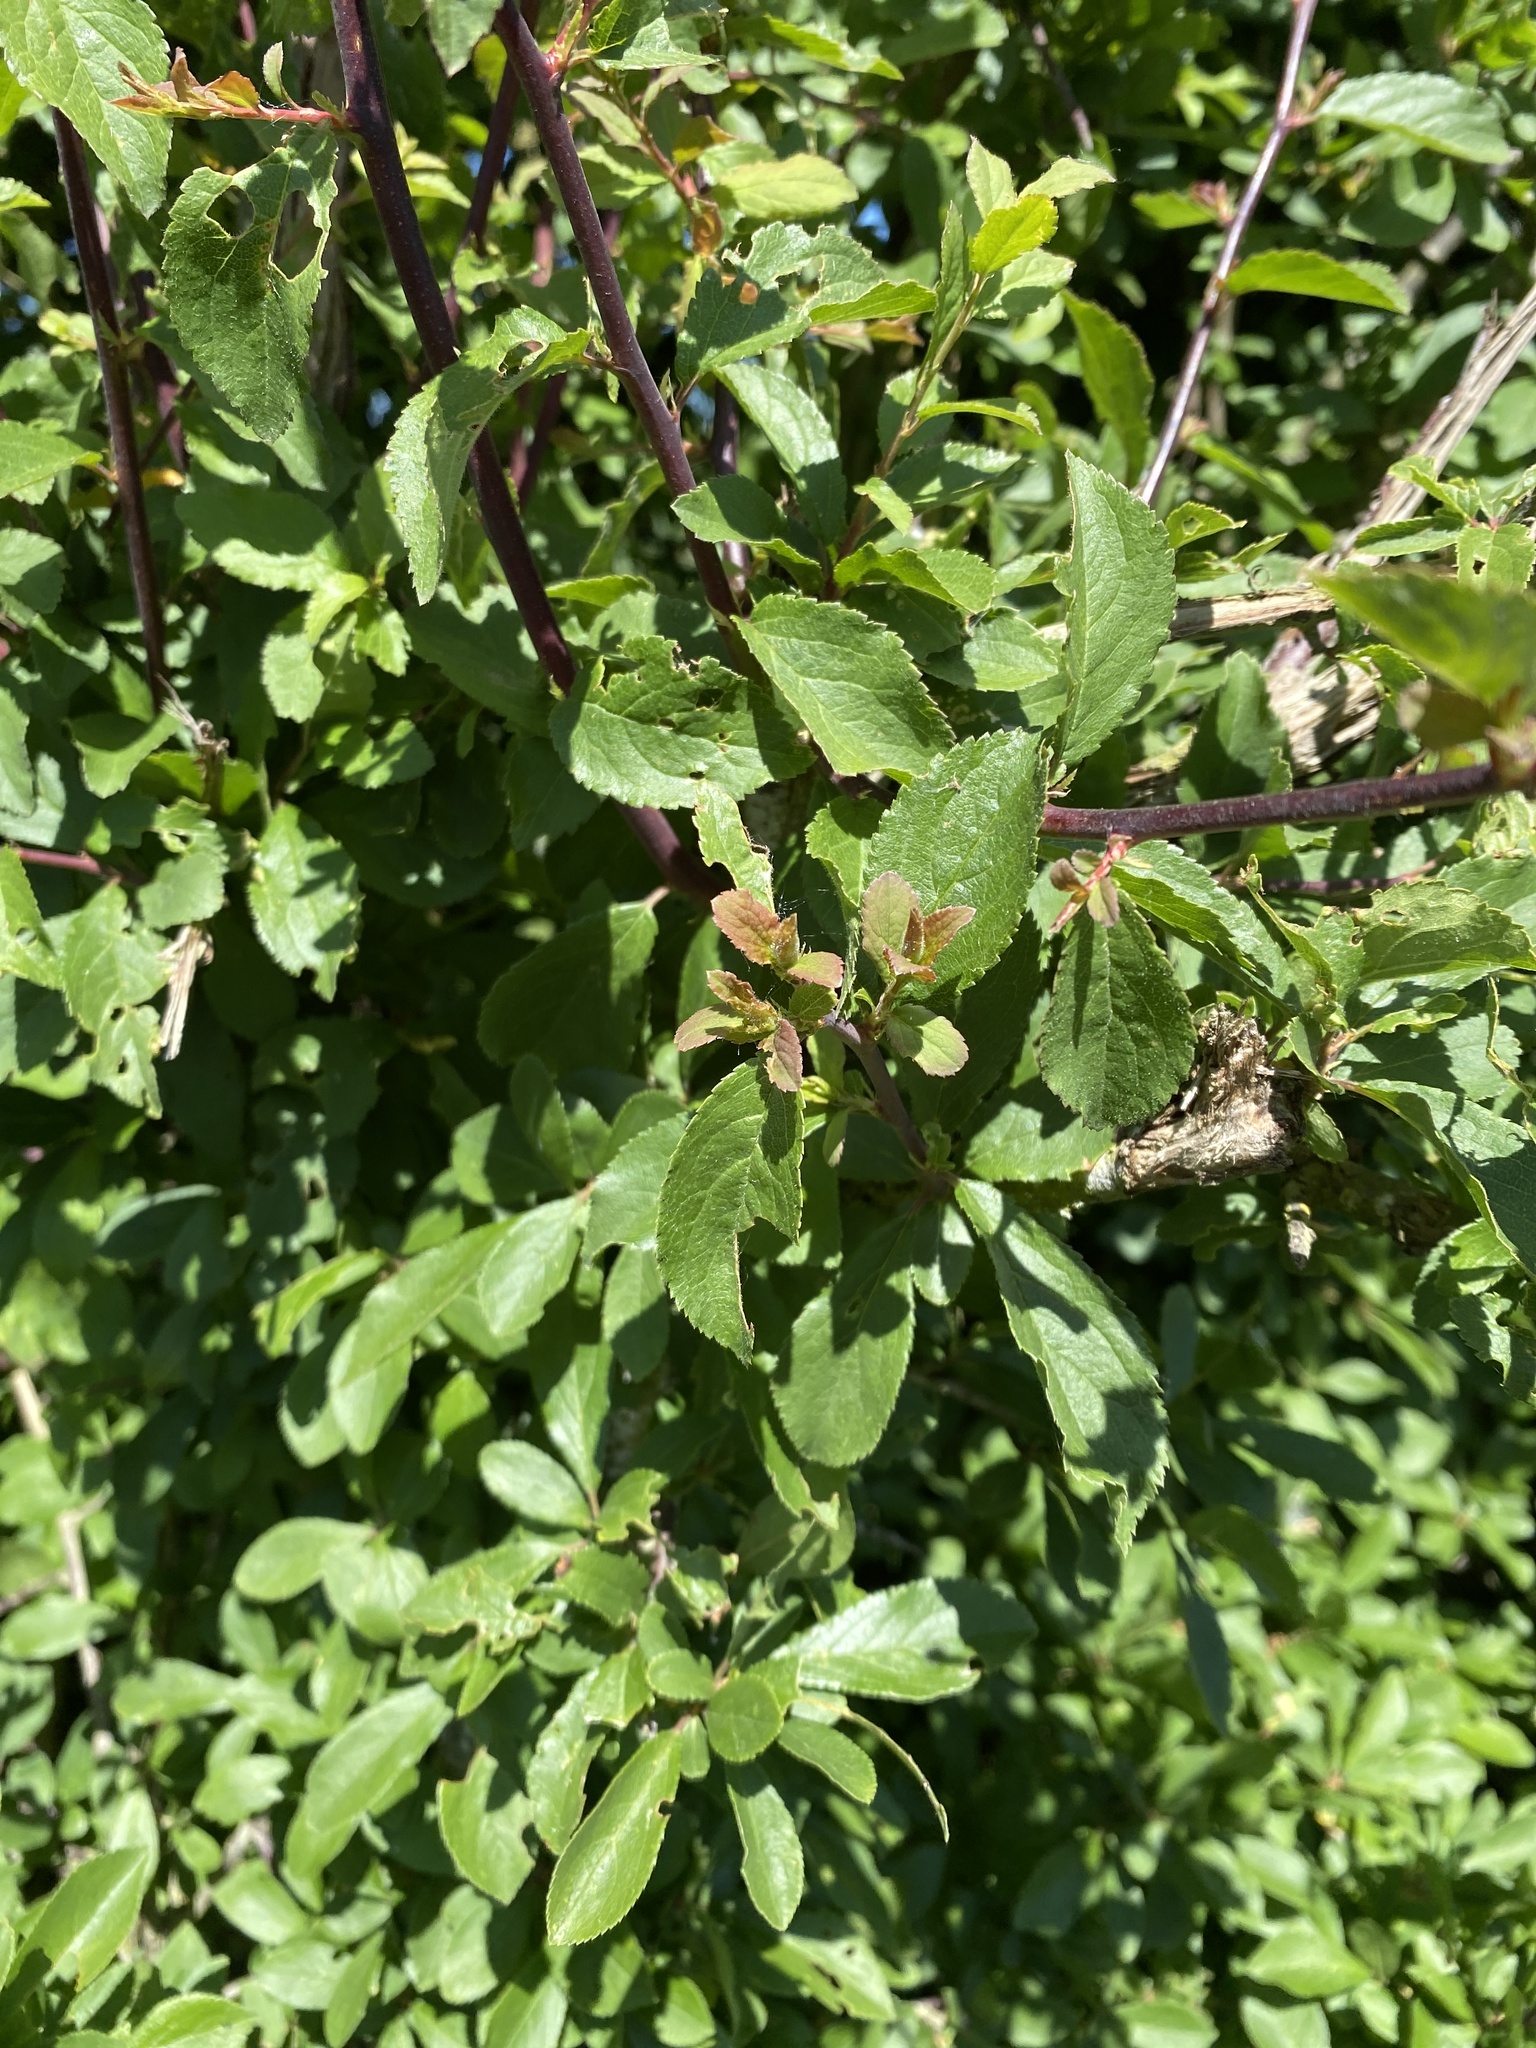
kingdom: Plantae
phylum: Tracheophyta
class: Magnoliopsida
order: Rosales
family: Rosaceae
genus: Prunus
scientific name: Prunus spinosa
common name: Blackthorn
